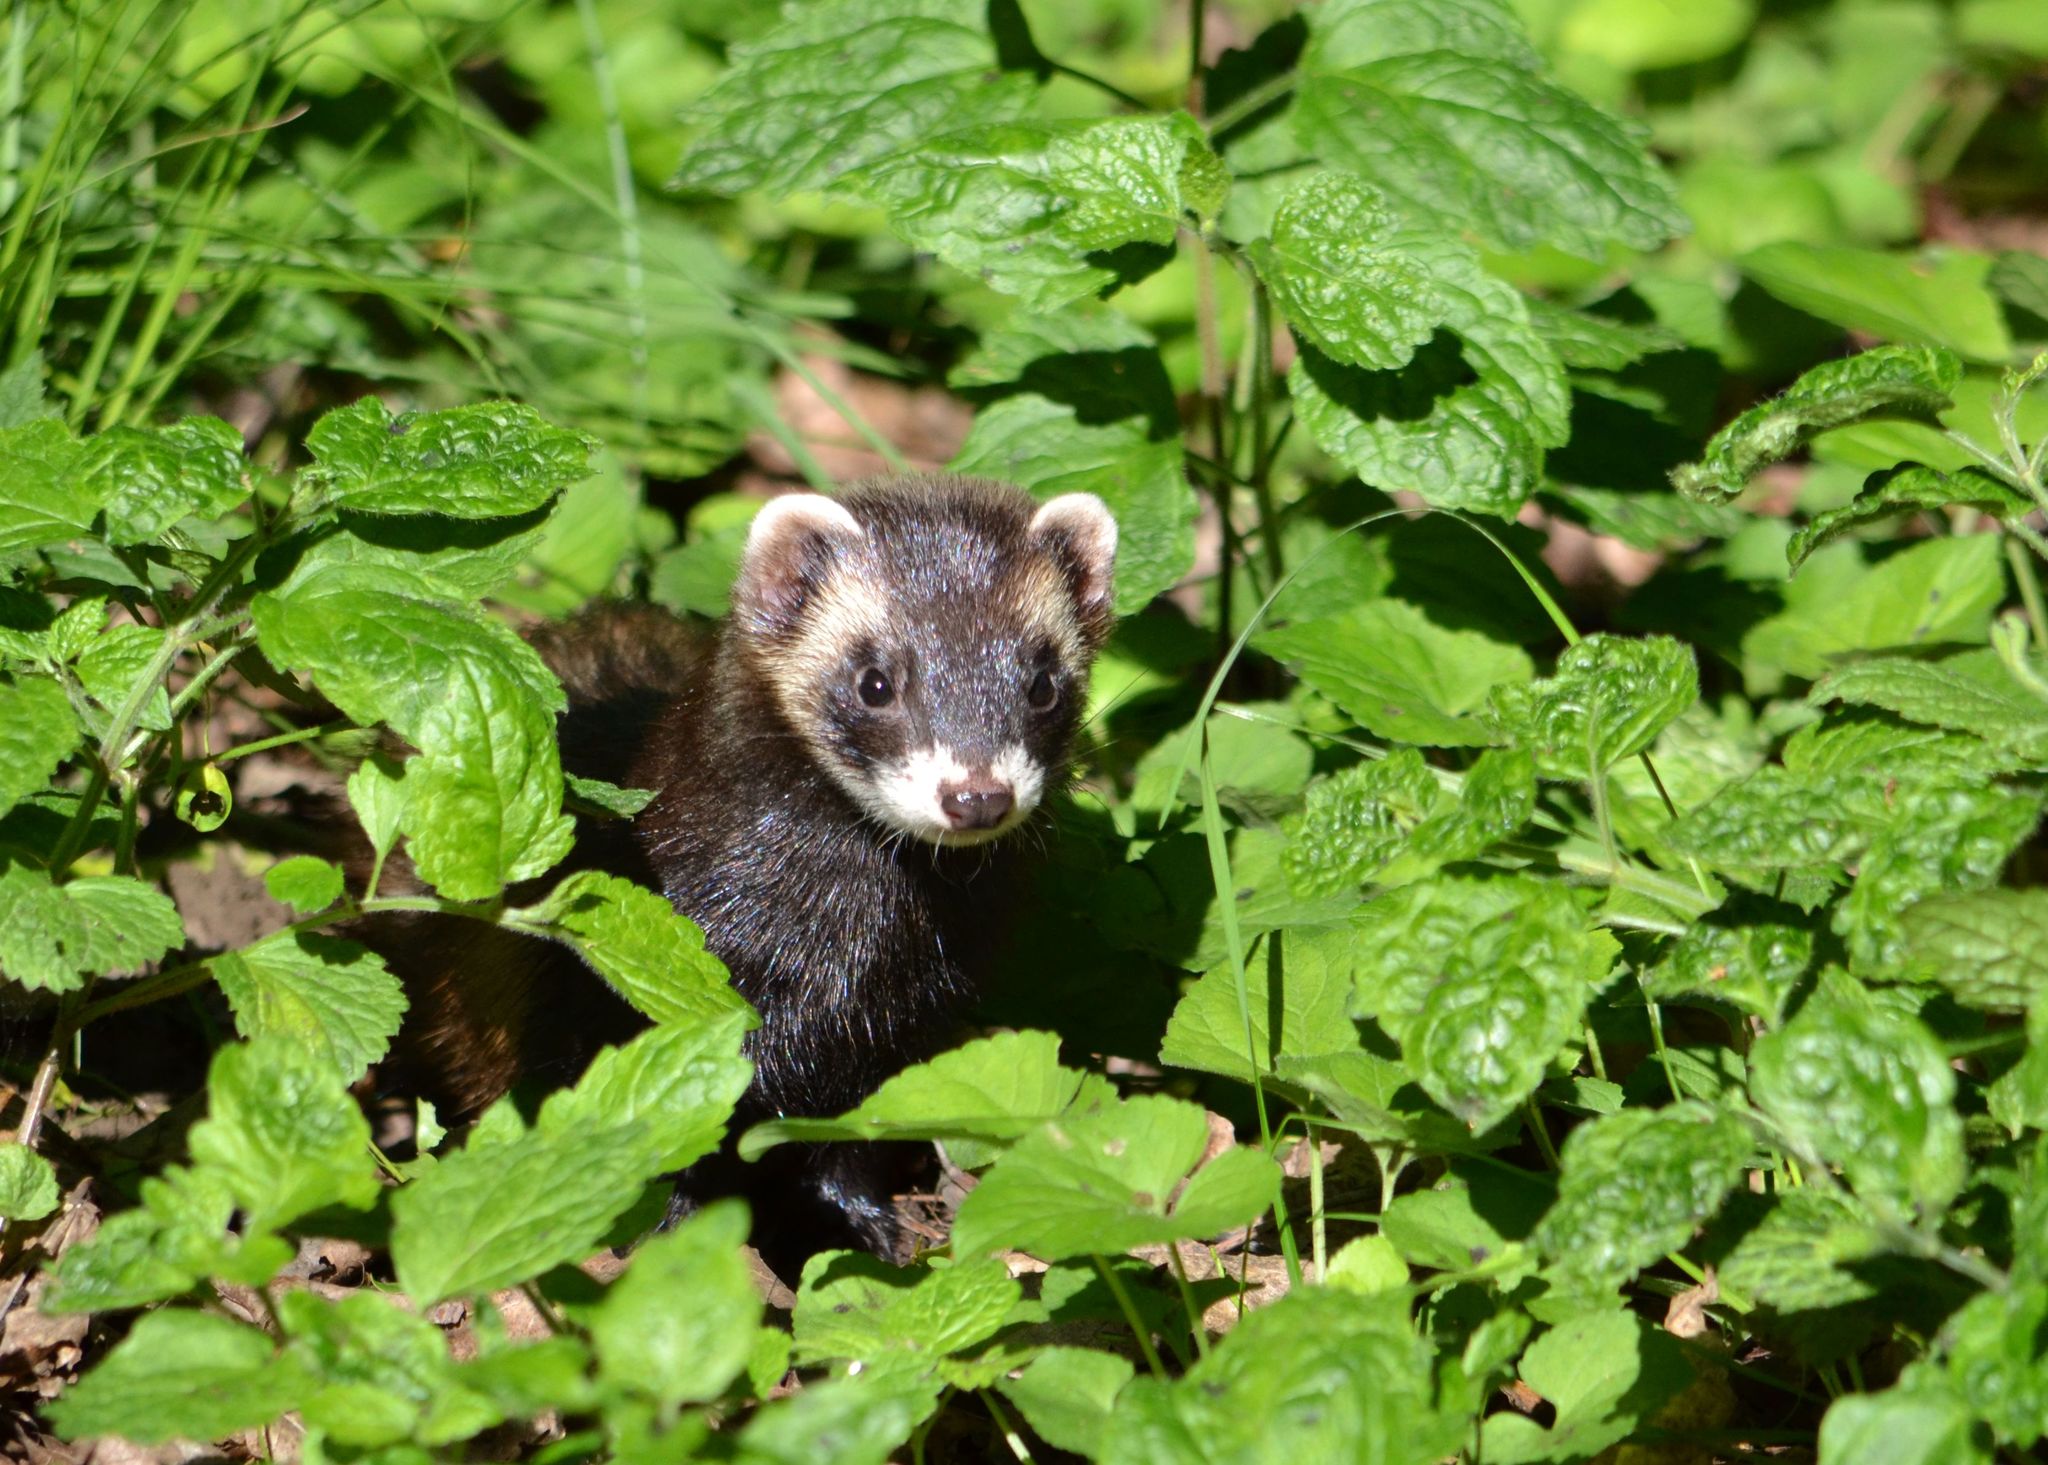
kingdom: Animalia
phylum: Chordata
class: Mammalia
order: Carnivora
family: Mustelidae
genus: Mustela
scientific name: Mustela putorius
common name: European polecat
